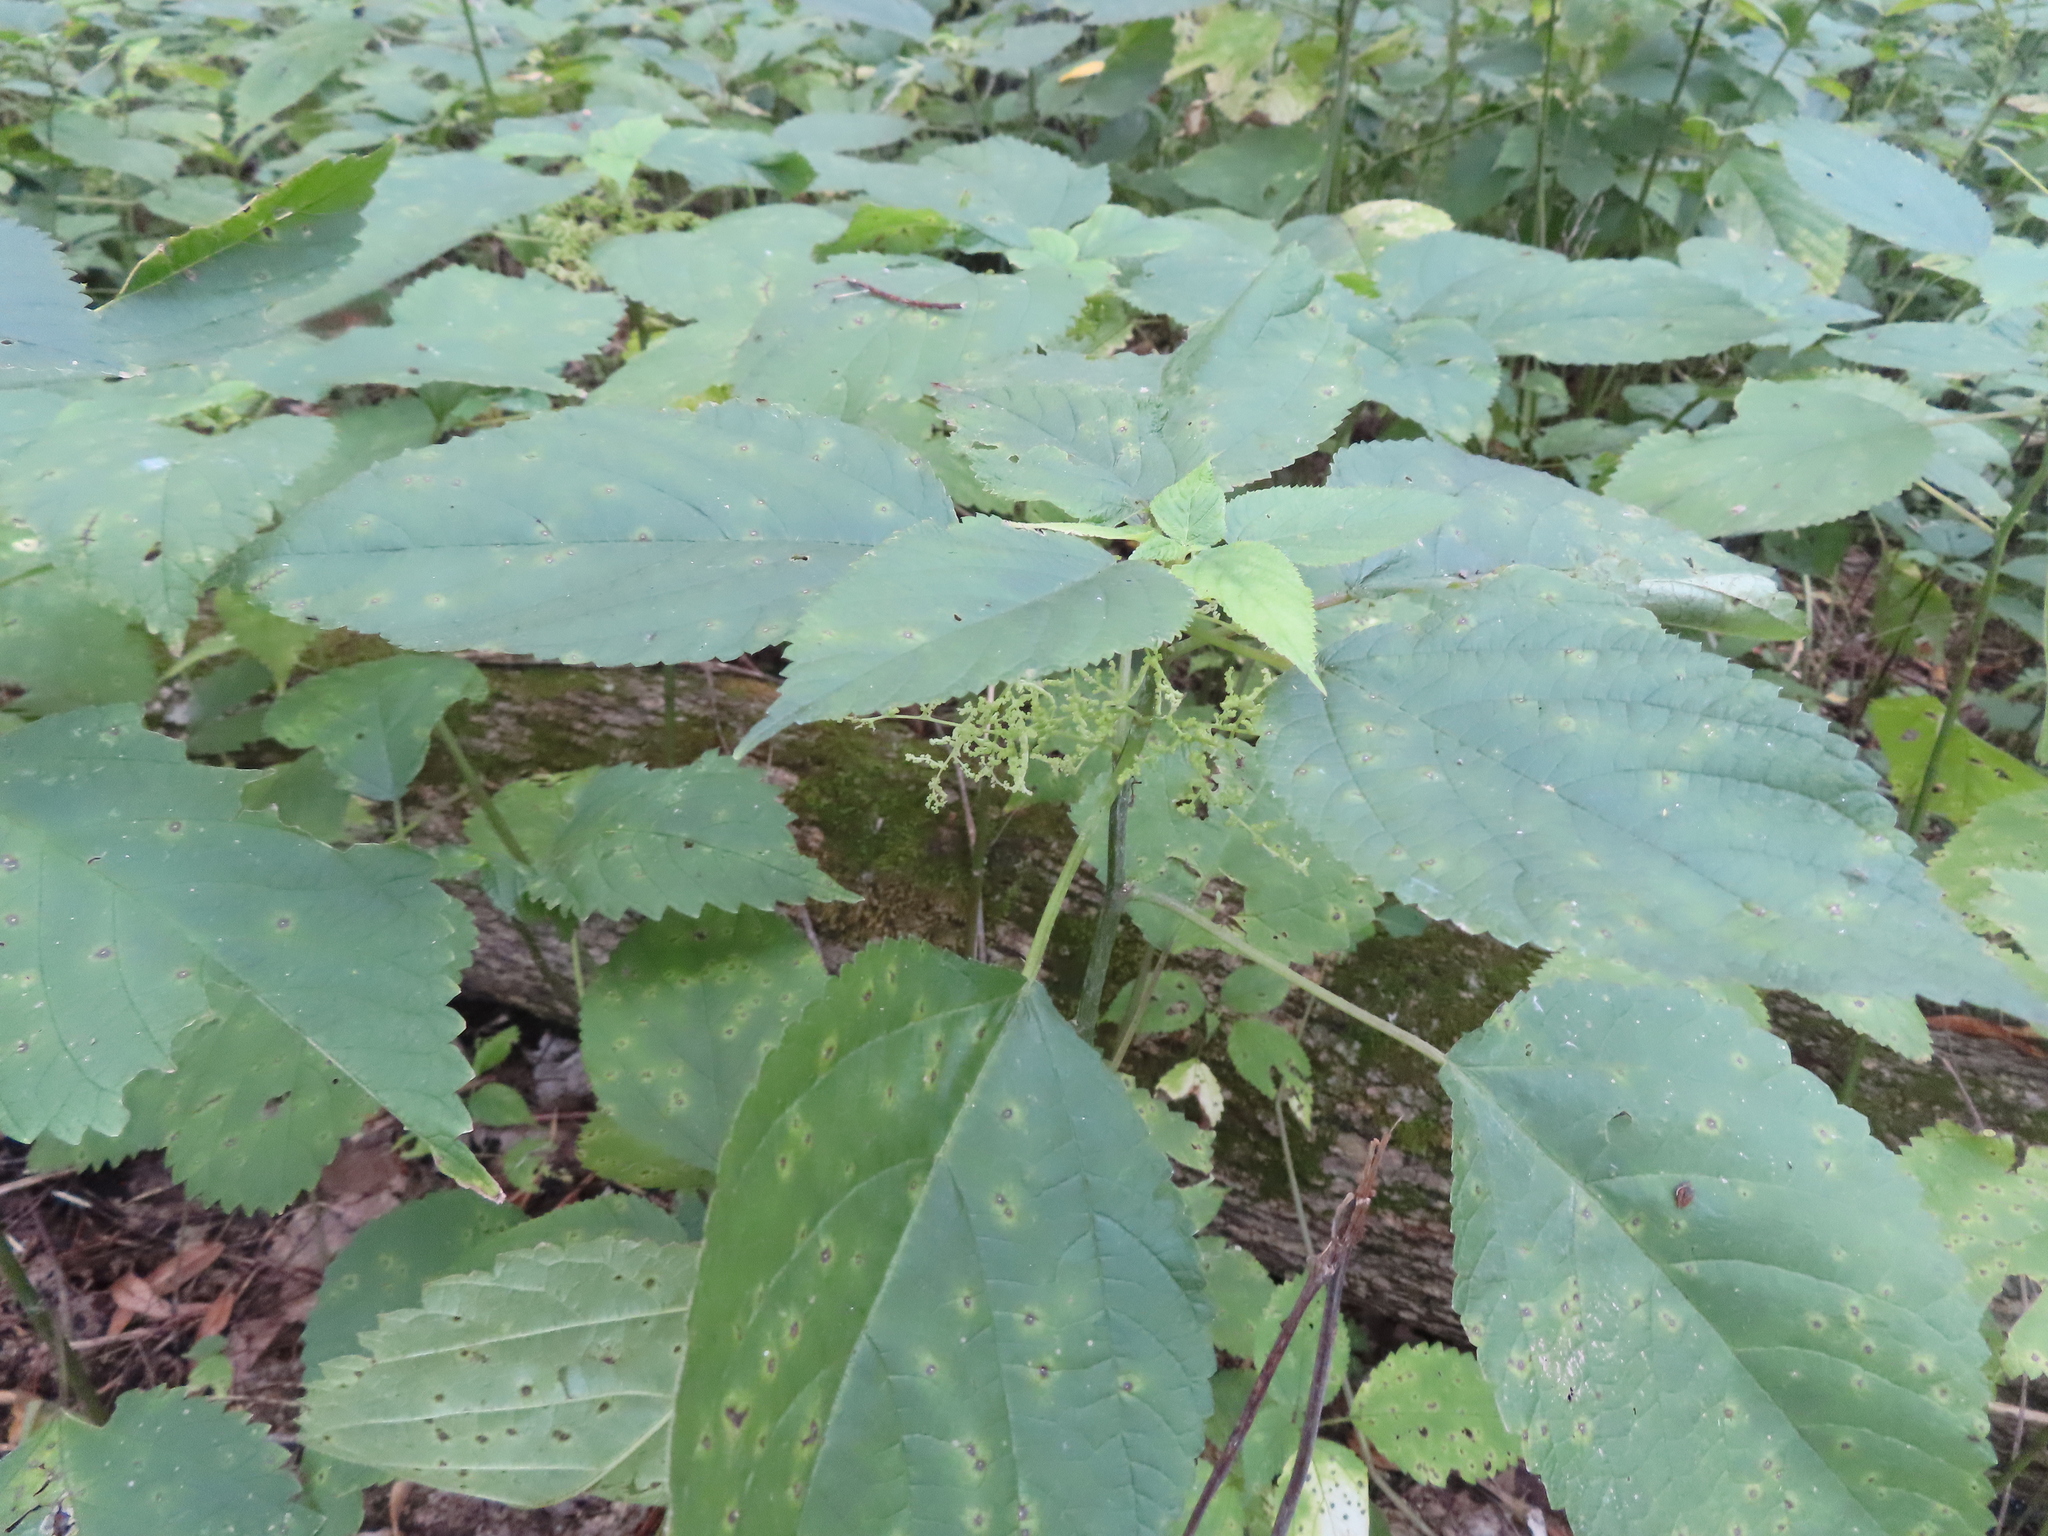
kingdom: Plantae
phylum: Tracheophyta
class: Magnoliopsida
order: Rosales
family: Urticaceae
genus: Laportea
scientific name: Laportea canadensis
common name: Canada nettle
